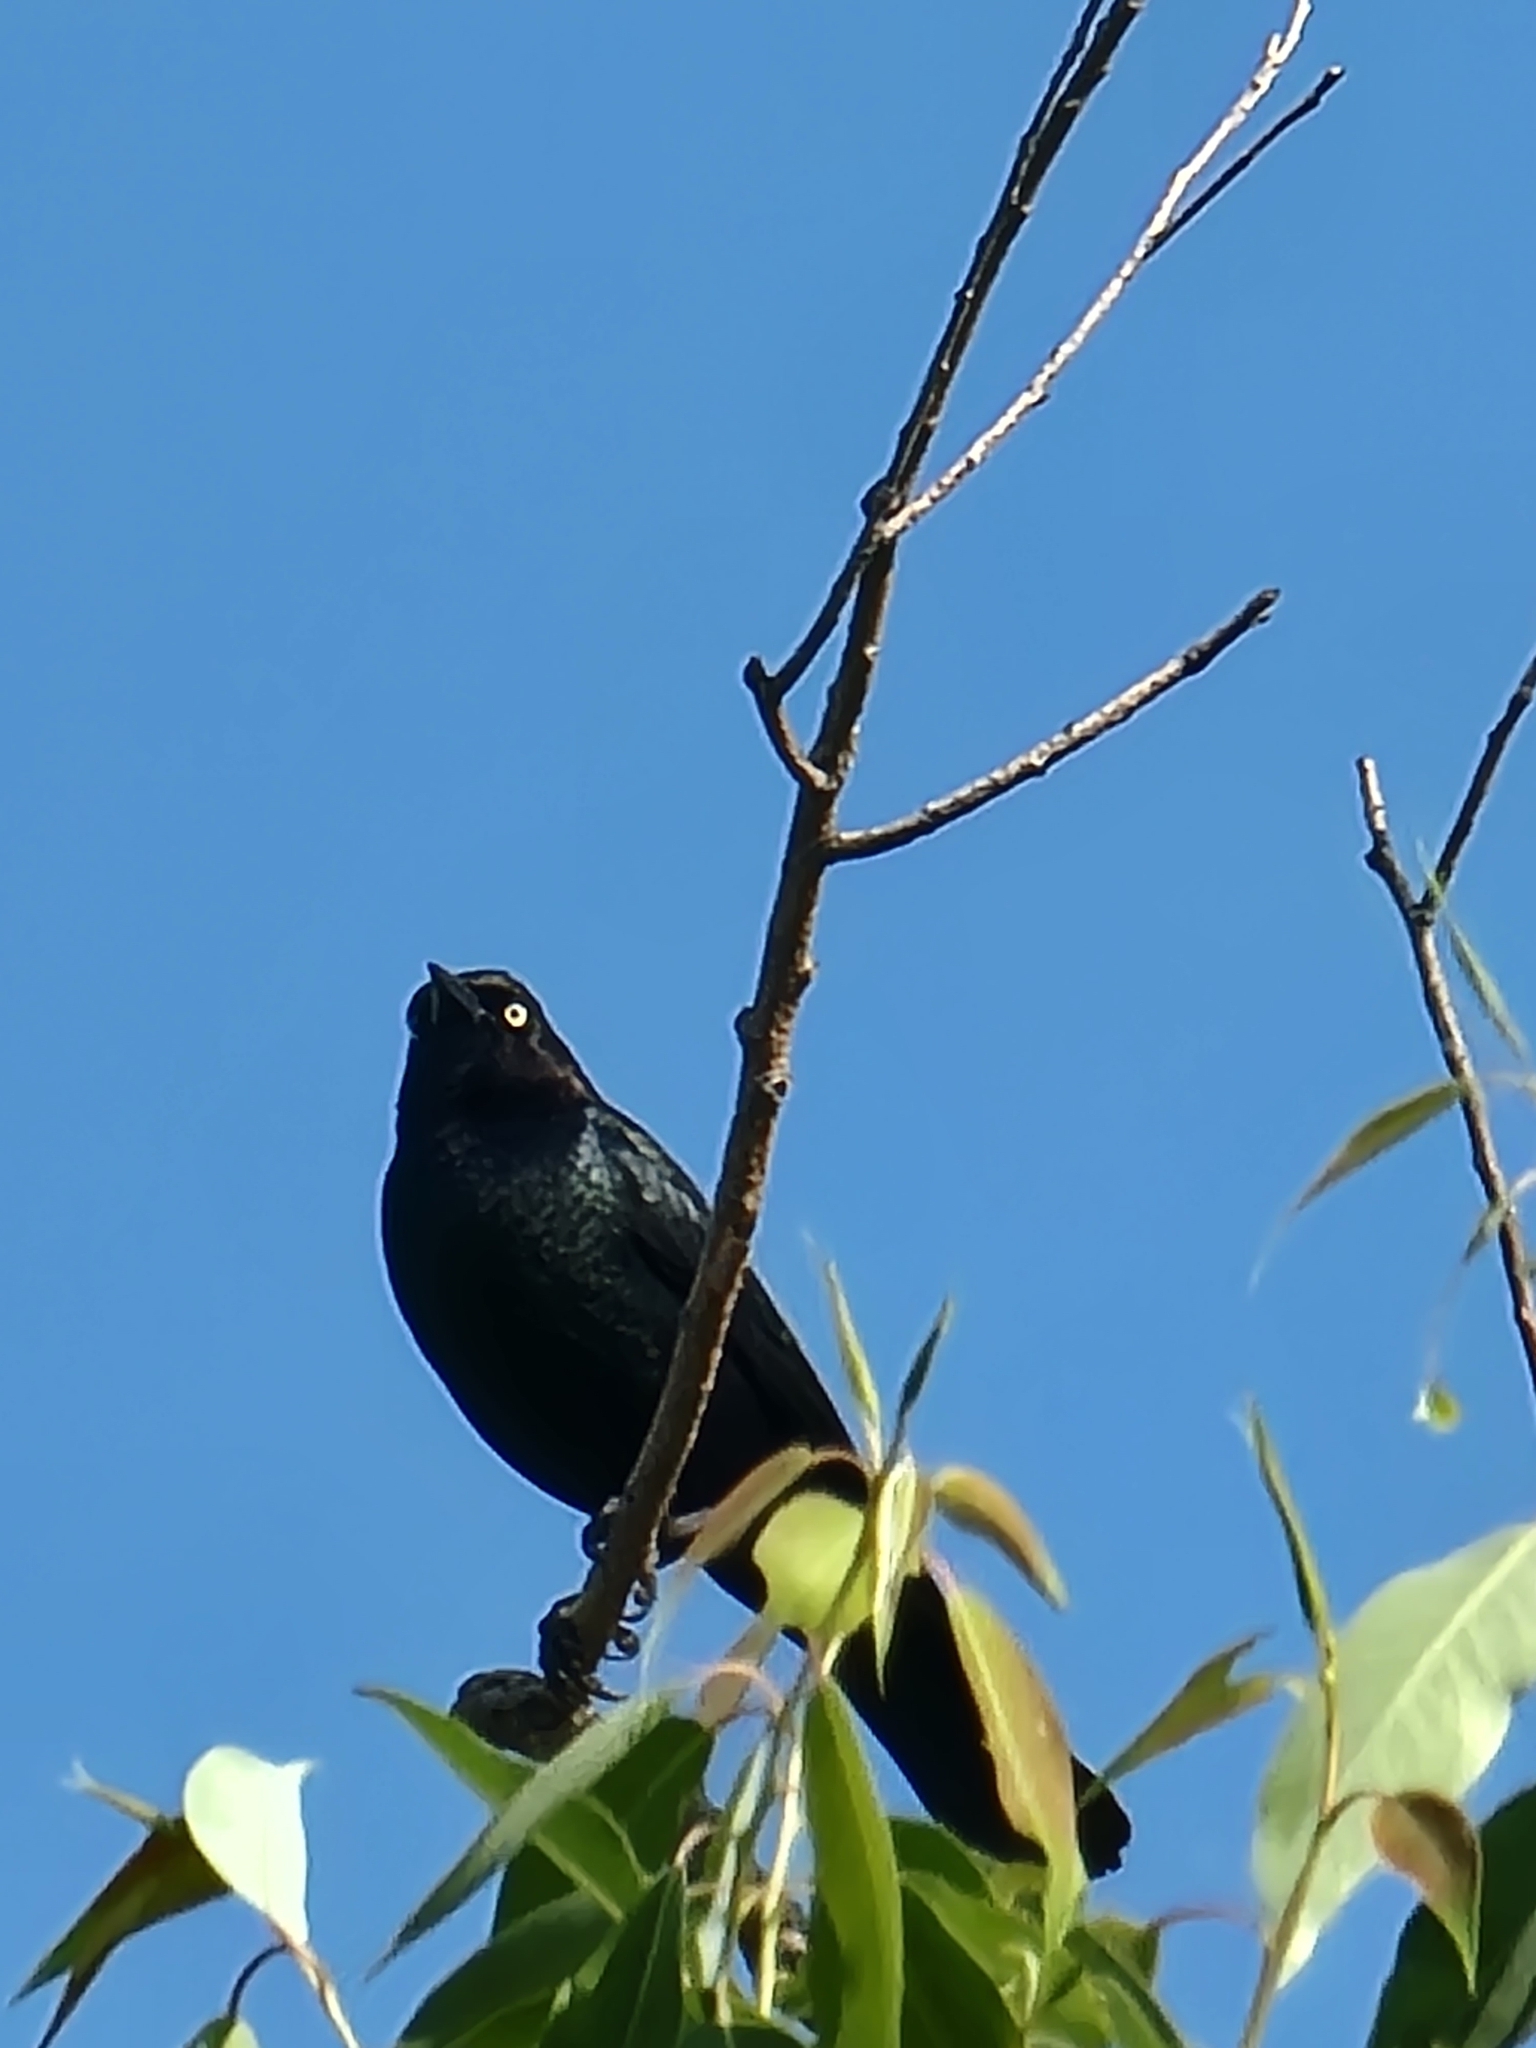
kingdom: Animalia
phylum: Chordata
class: Aves
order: Passeriformes
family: Icteridae
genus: Quiscalus
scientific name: Quiscalus quiscula
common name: Common grackle
